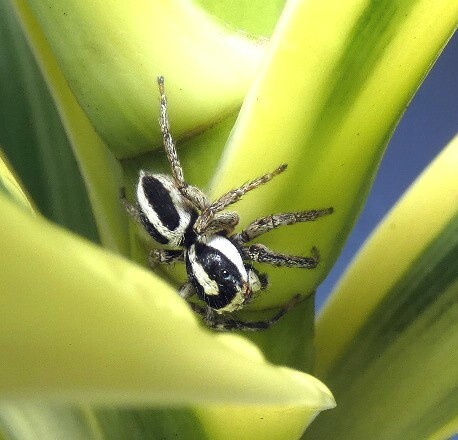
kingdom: Animalia
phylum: Arthropoda
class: Arachnida
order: Araneae
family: Salticidae
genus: Leptofreya
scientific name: Leptofreya ambigua
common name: Jumping spider
